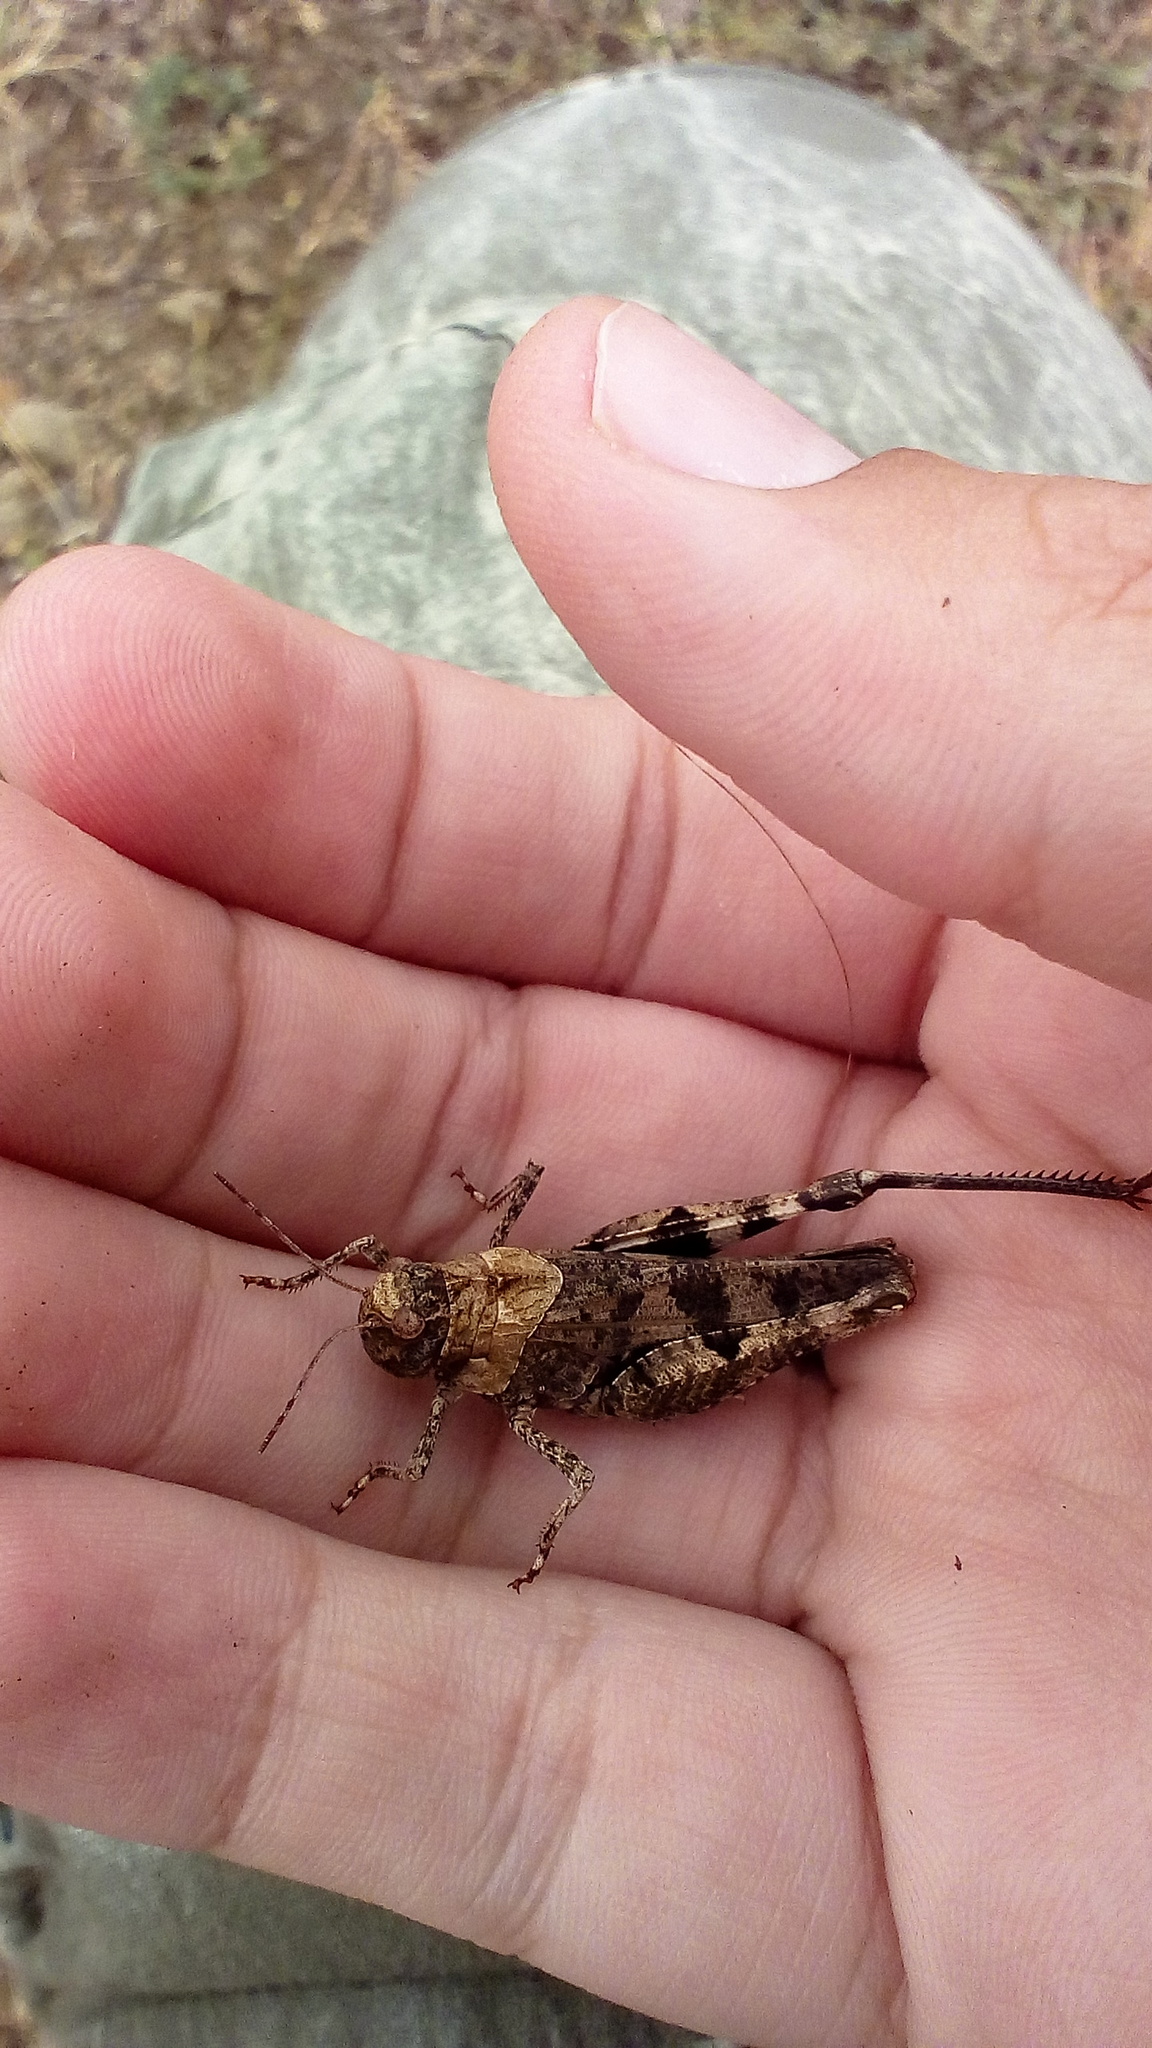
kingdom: Animalia
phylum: Arthropoda
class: Insecta
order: Orthoptera
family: Acrididae
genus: Celes
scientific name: Celes variabilis
